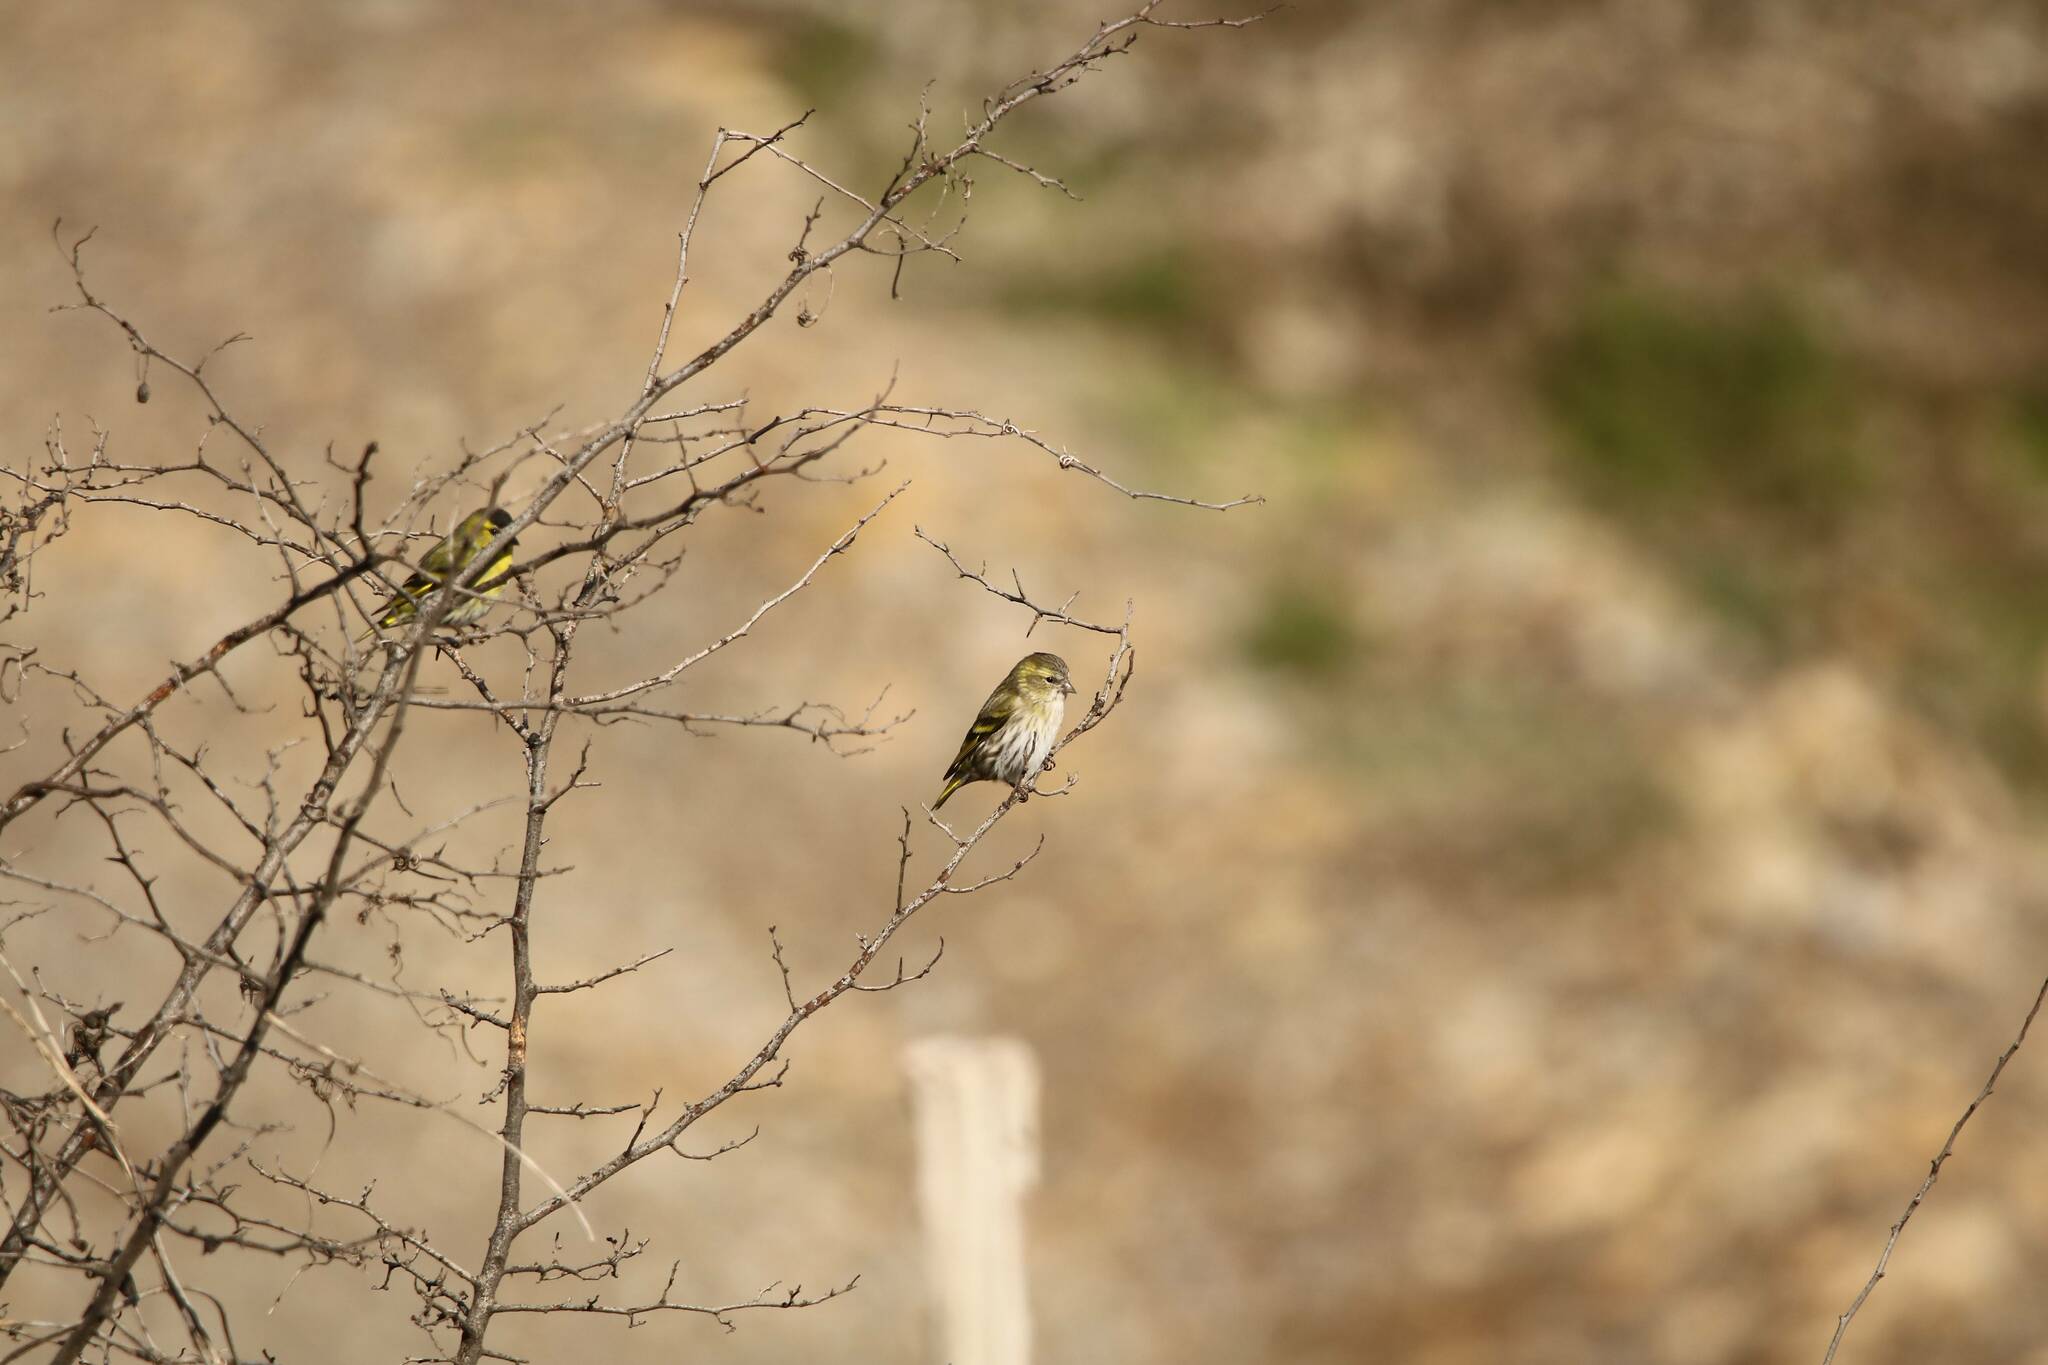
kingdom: Animalia
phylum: Chordata
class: Aves
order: Passeriformes
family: Fringillidae
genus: Spinus
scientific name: Spinus spinus
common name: Eurasian siskin
